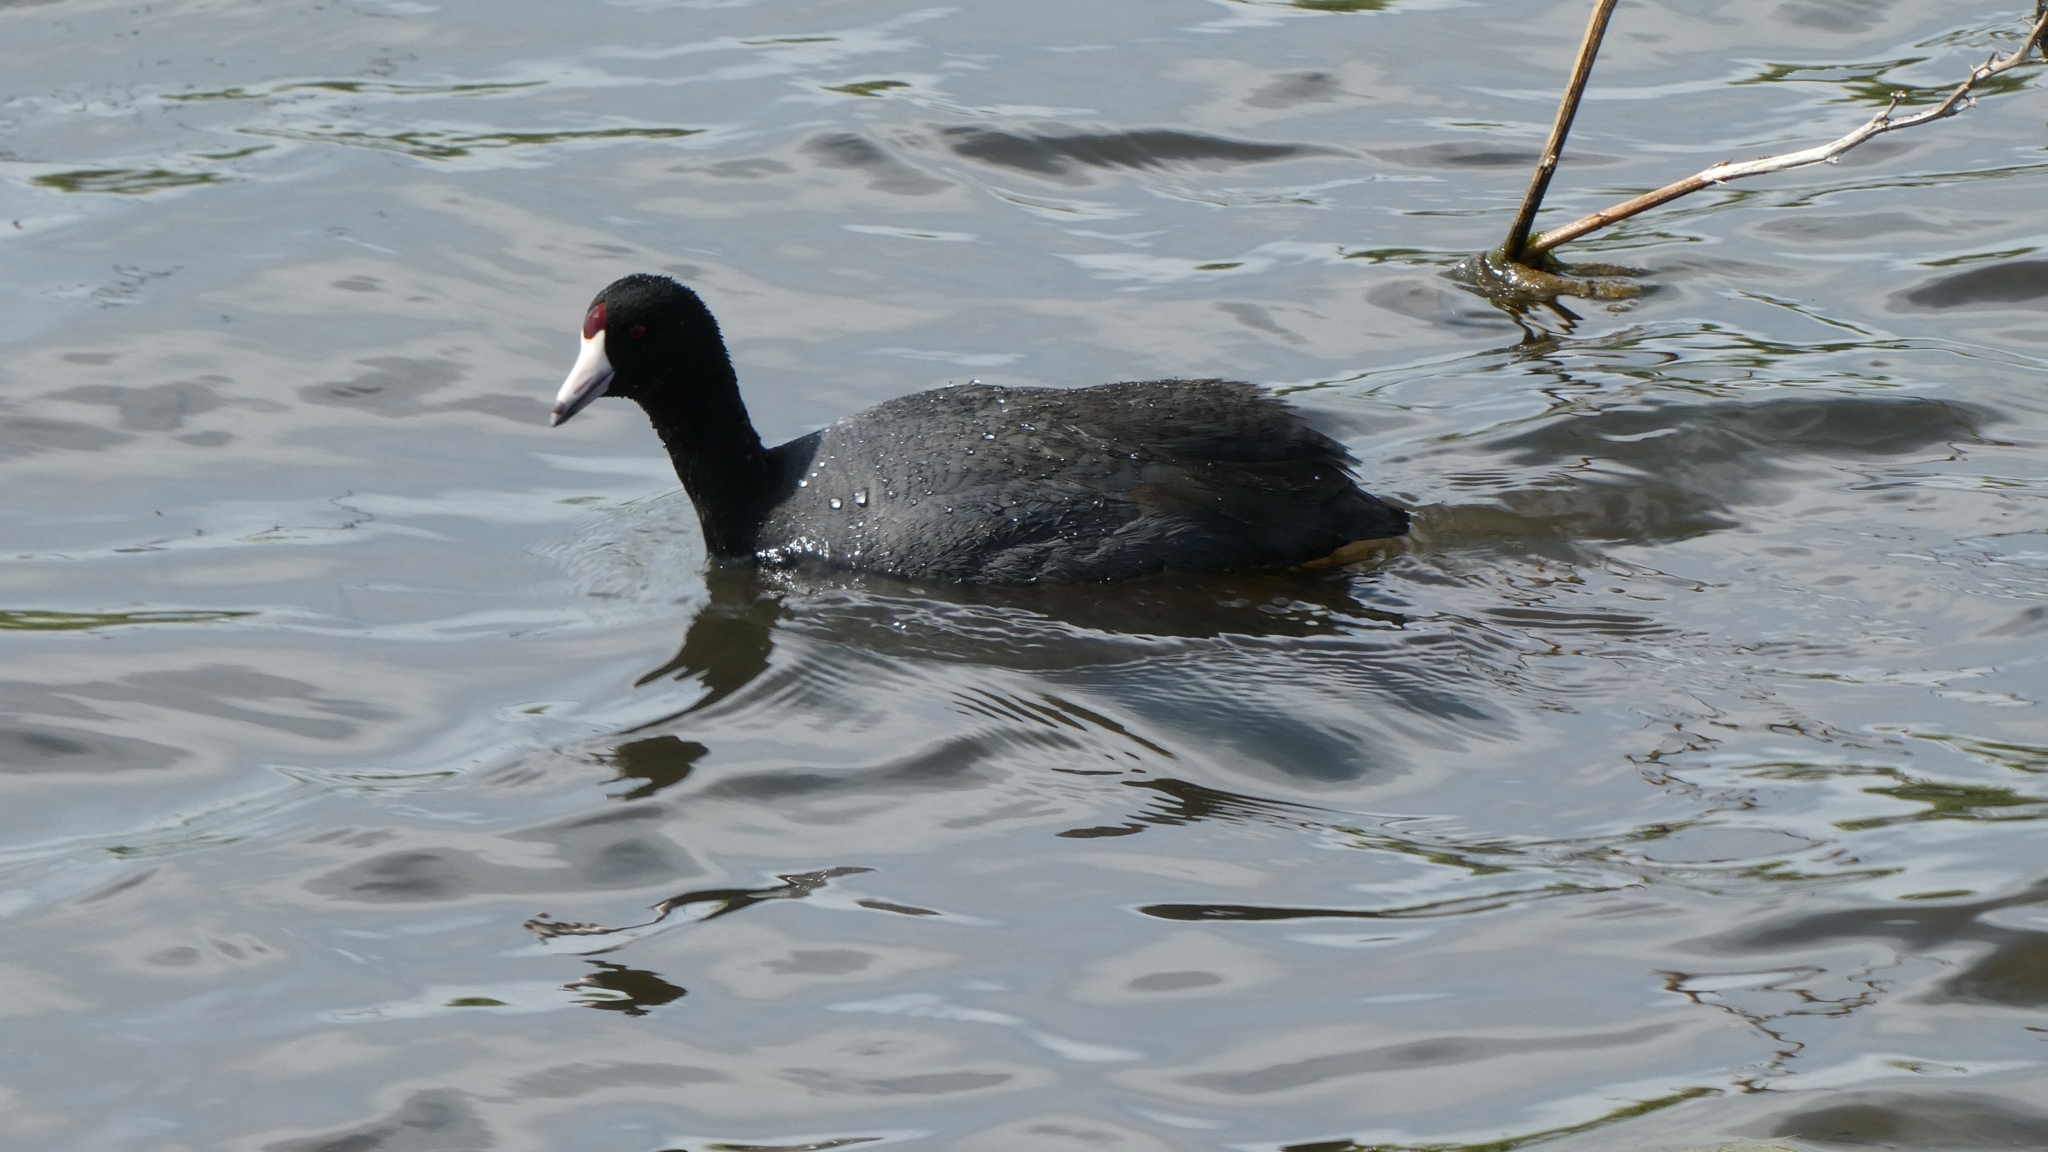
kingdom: Animalia
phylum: Chordata
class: Aves
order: Gruiformes
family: Rallidae
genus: Fulica
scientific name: Fulica americana
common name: American coot
